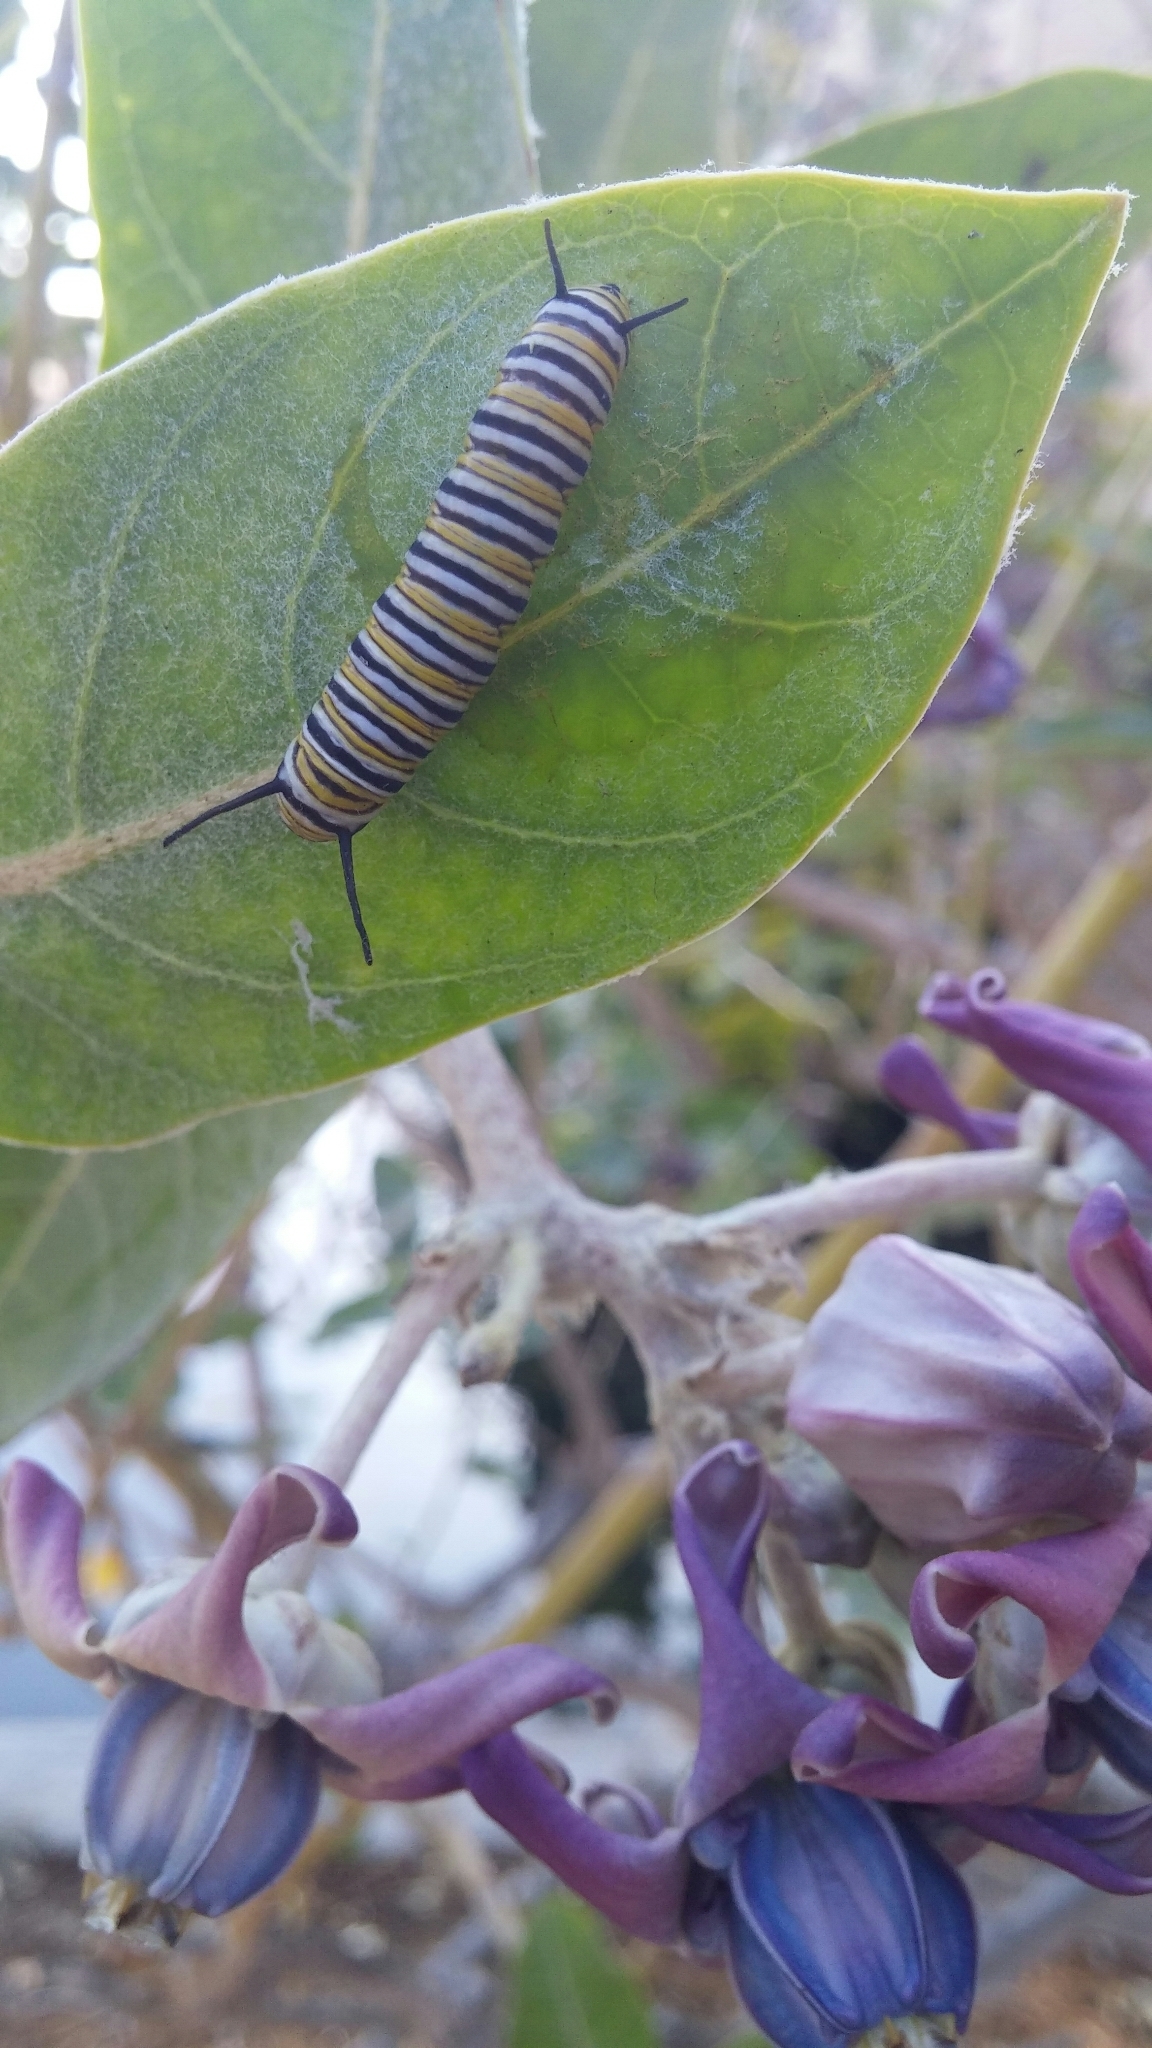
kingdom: Animalia
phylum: Arthropoda
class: Insecta
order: Lepidoptera
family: Nymphalidae
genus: Danaus
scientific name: Danaus plexippus
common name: Monarch
